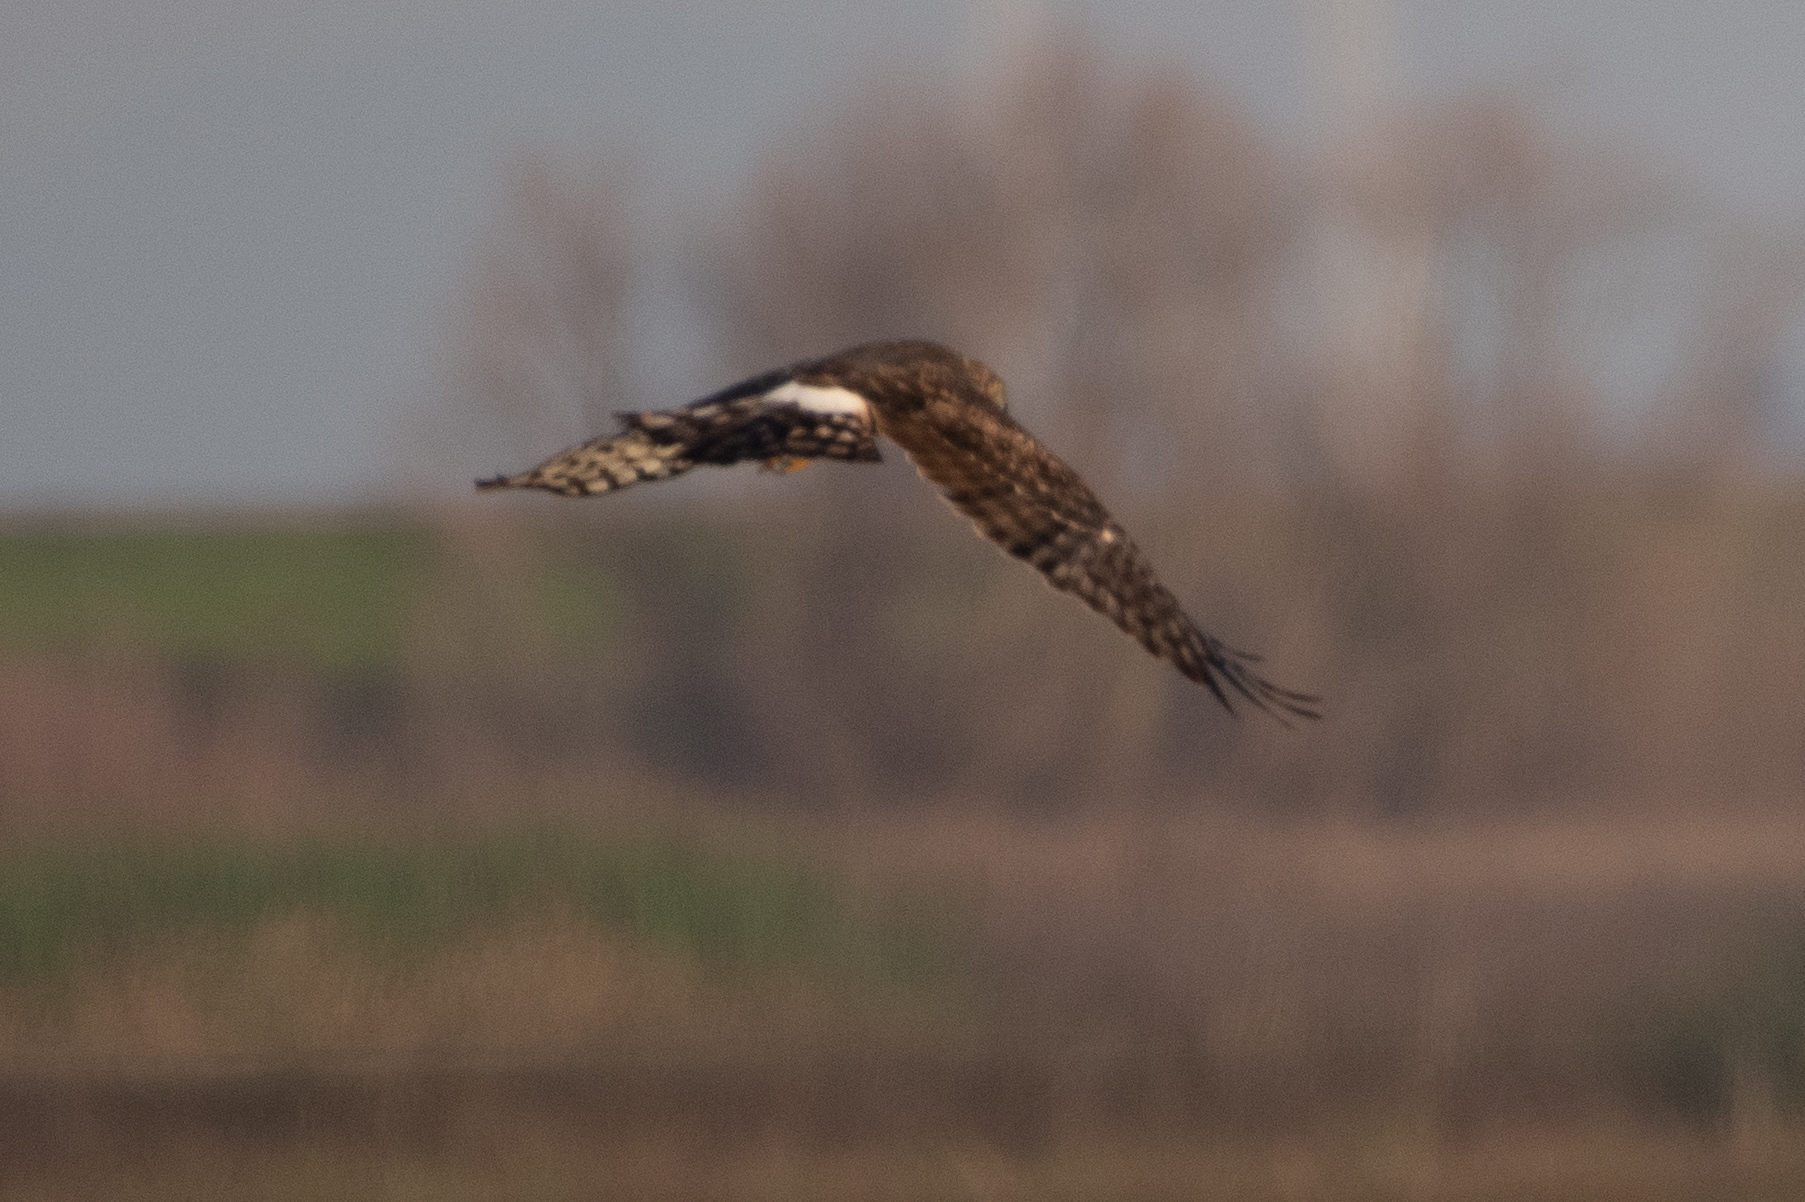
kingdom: Animalia
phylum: Chordata
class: Aves
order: Accipitriformes
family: Accipitridae
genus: Circus
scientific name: Circus cyaneus
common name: Hen harrier
